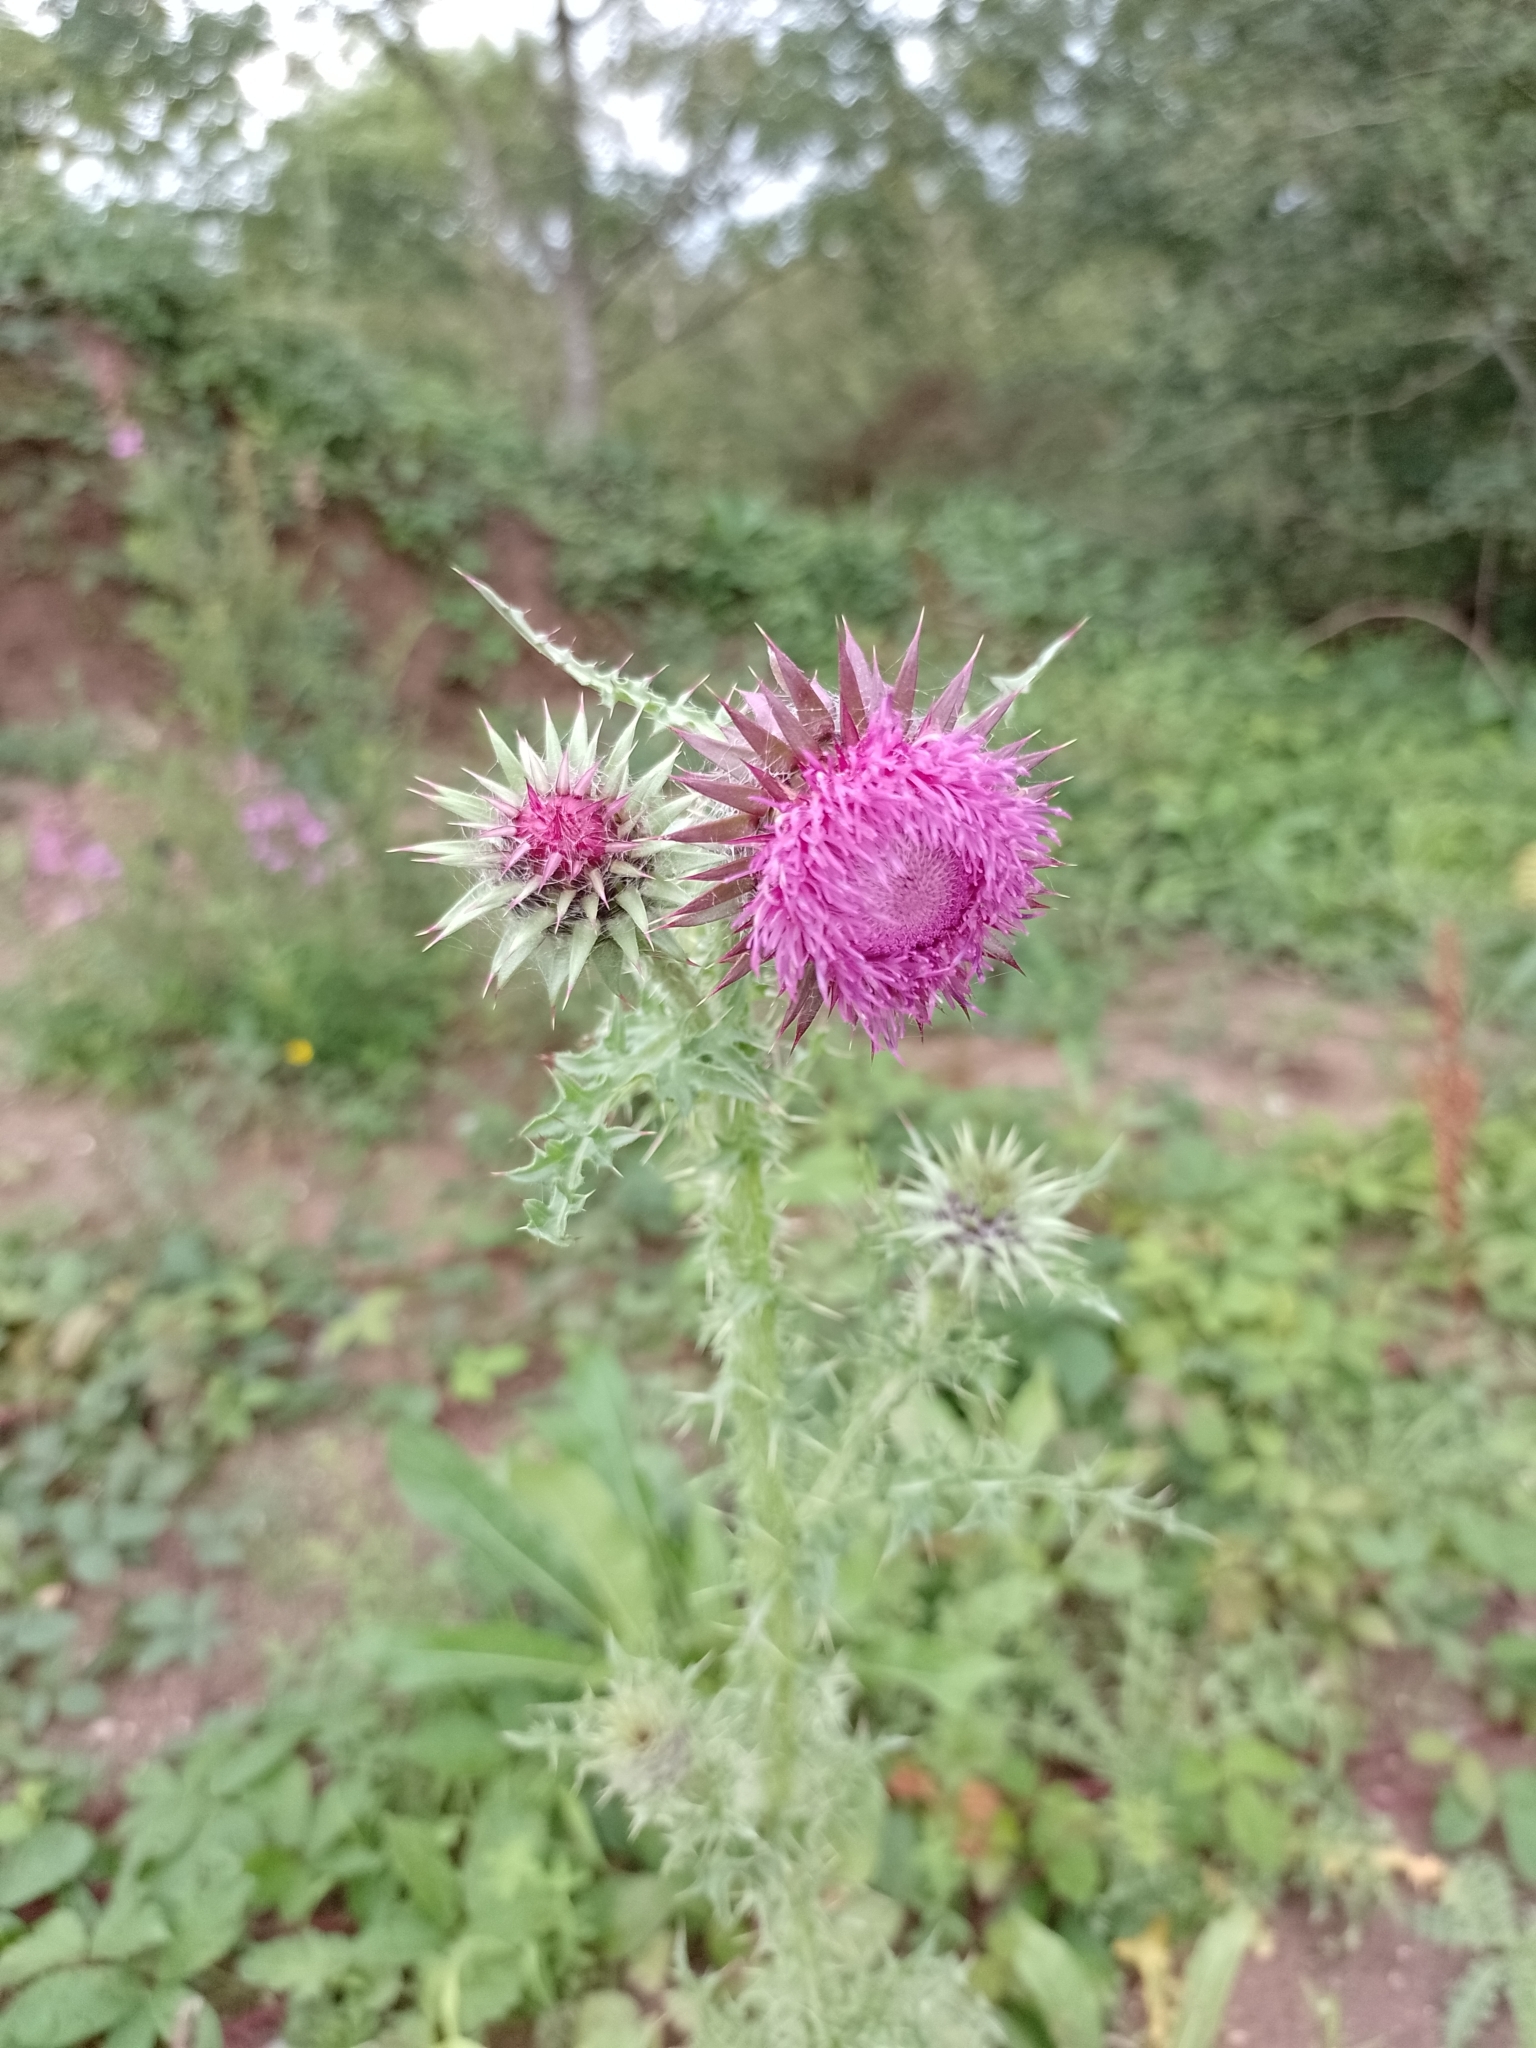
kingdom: Plantae
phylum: Tracheophyta
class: Magnoliopsida
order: Asterales
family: Asteraceae
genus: Carduus
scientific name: Carduus nutans
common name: Musk thistle
